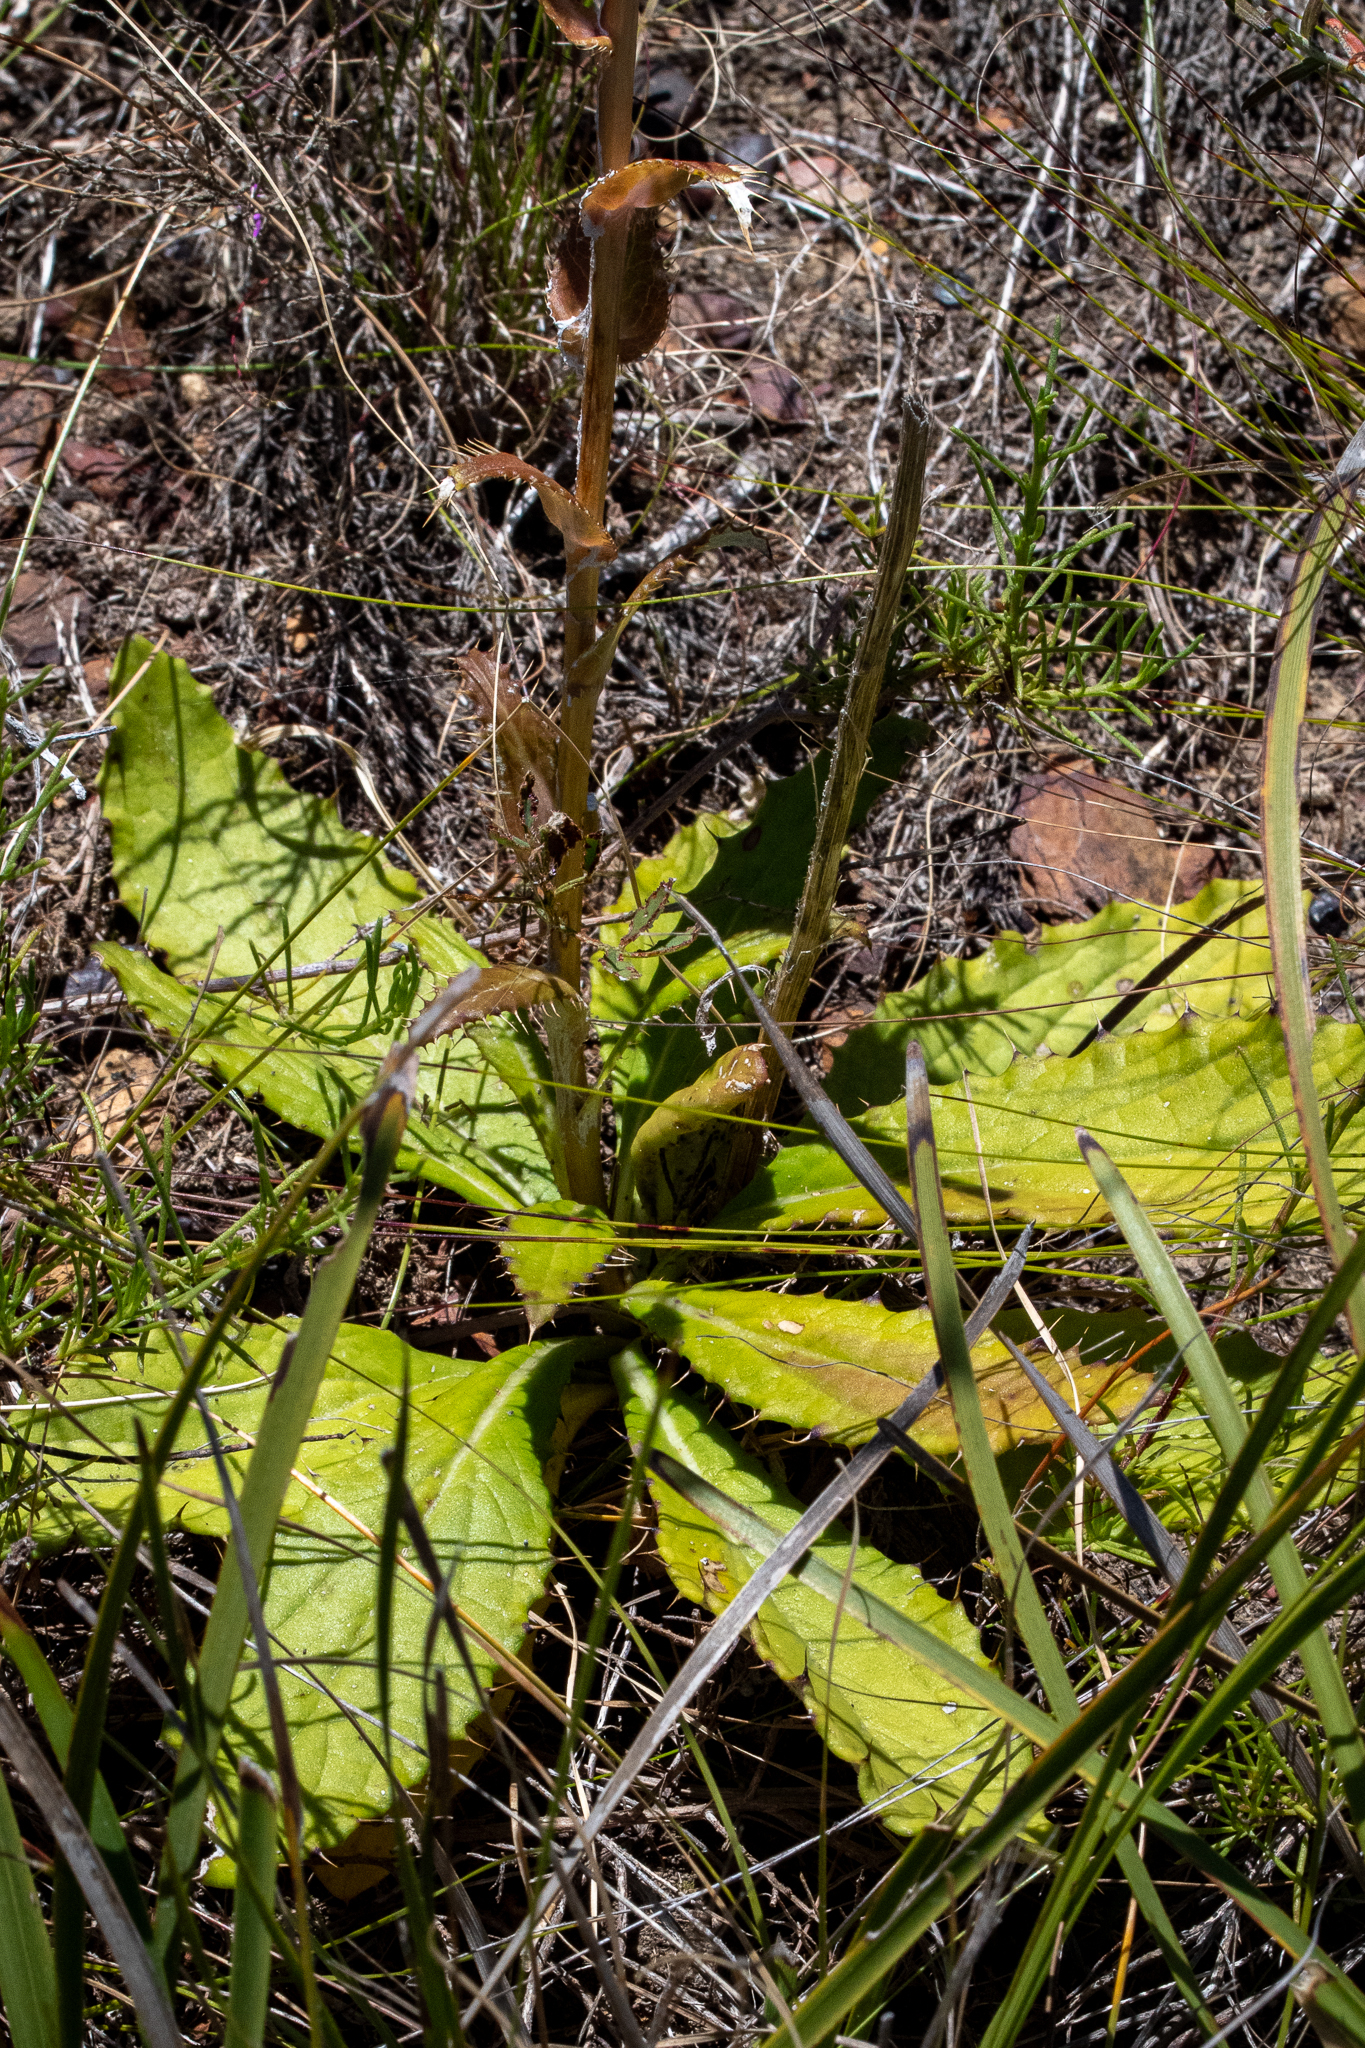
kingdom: Plantae
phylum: Tracheophyta
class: Magnoliopsida
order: Asterales
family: Asteraceae
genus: Berkheya
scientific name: Berkheya armata
